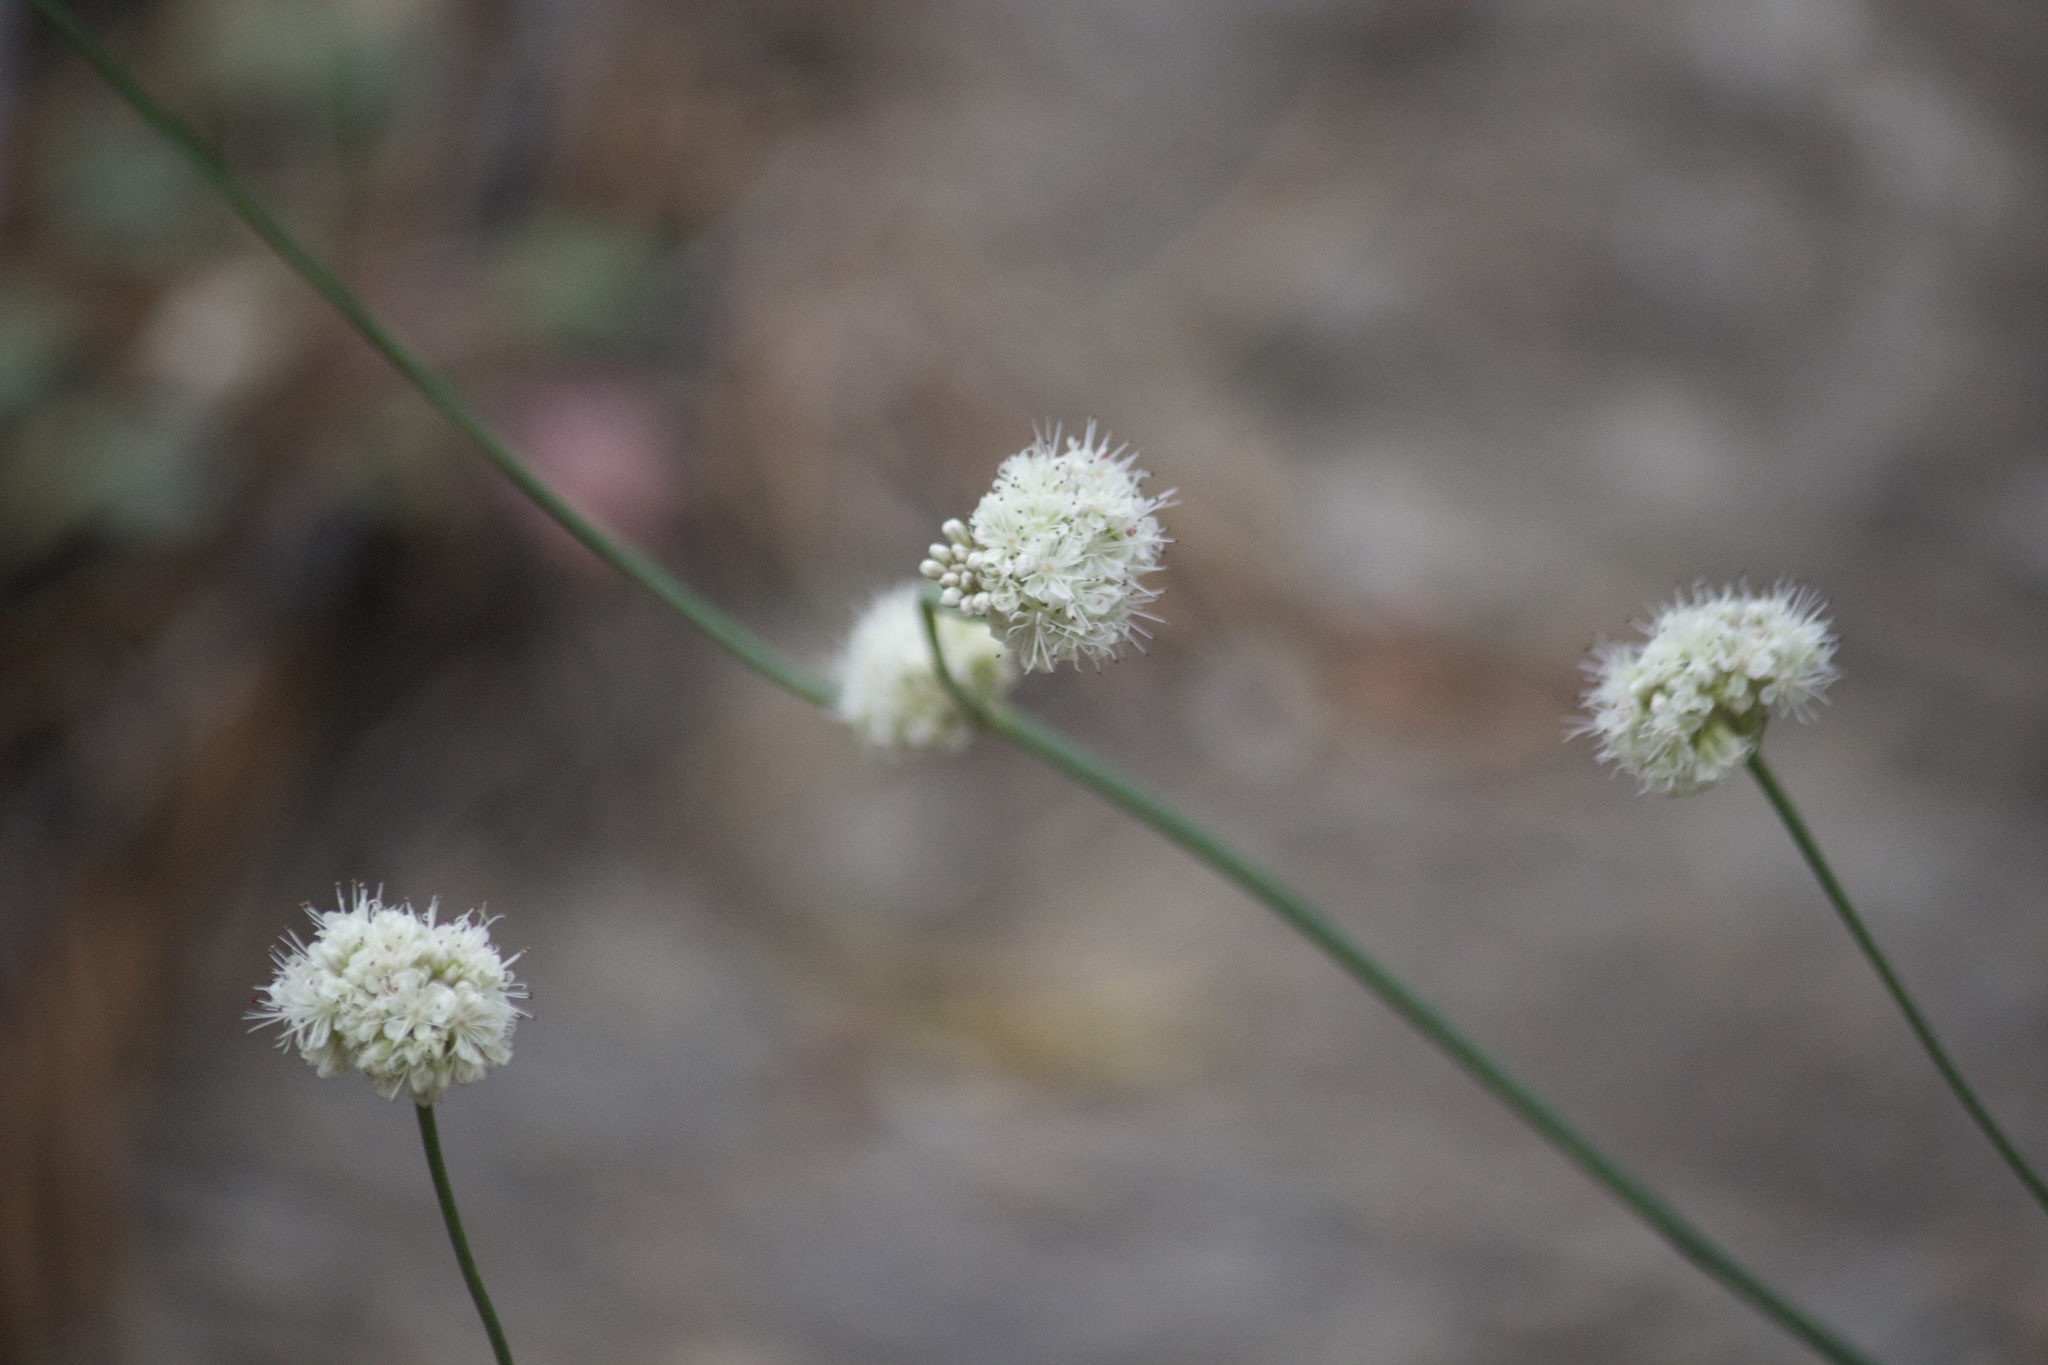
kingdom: Plantae
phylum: Tracheophyta
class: Magnoliopsida
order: Caryophyllales
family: Polygonaceae
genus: Eriogonum
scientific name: Eriogonum nudum
